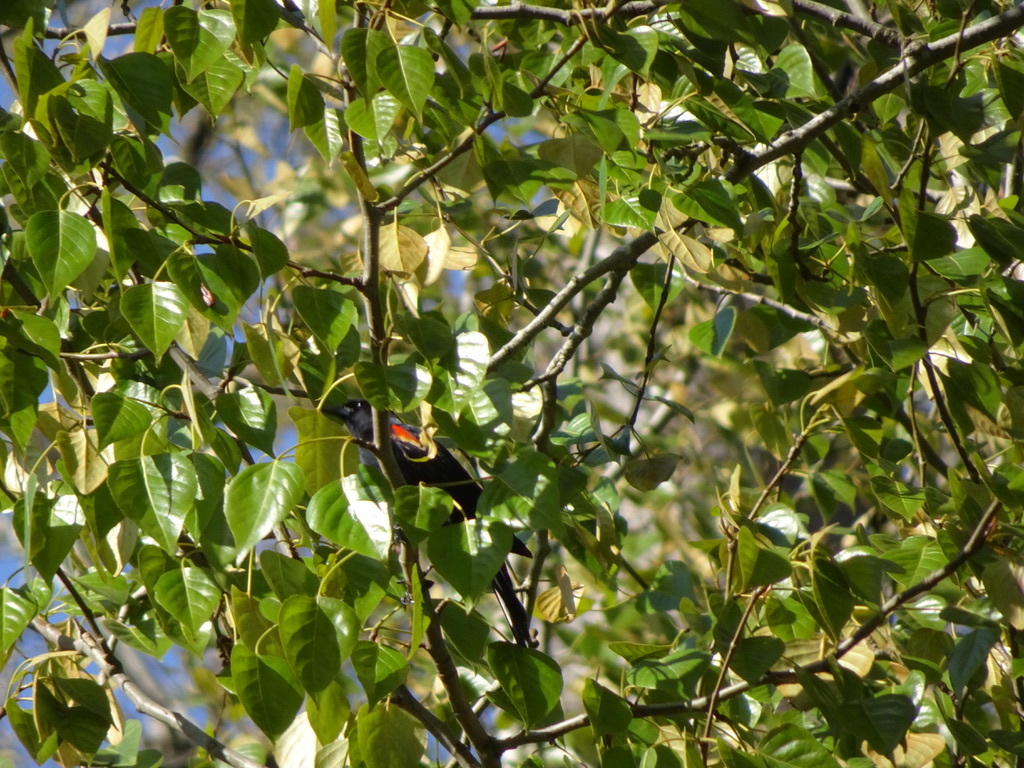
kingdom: Animalia
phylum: Chordata
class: Aves
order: Passeriformes
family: Icteridae
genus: Agelaius
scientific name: Agelaius phoeniceus
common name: Red-winged blackbird
